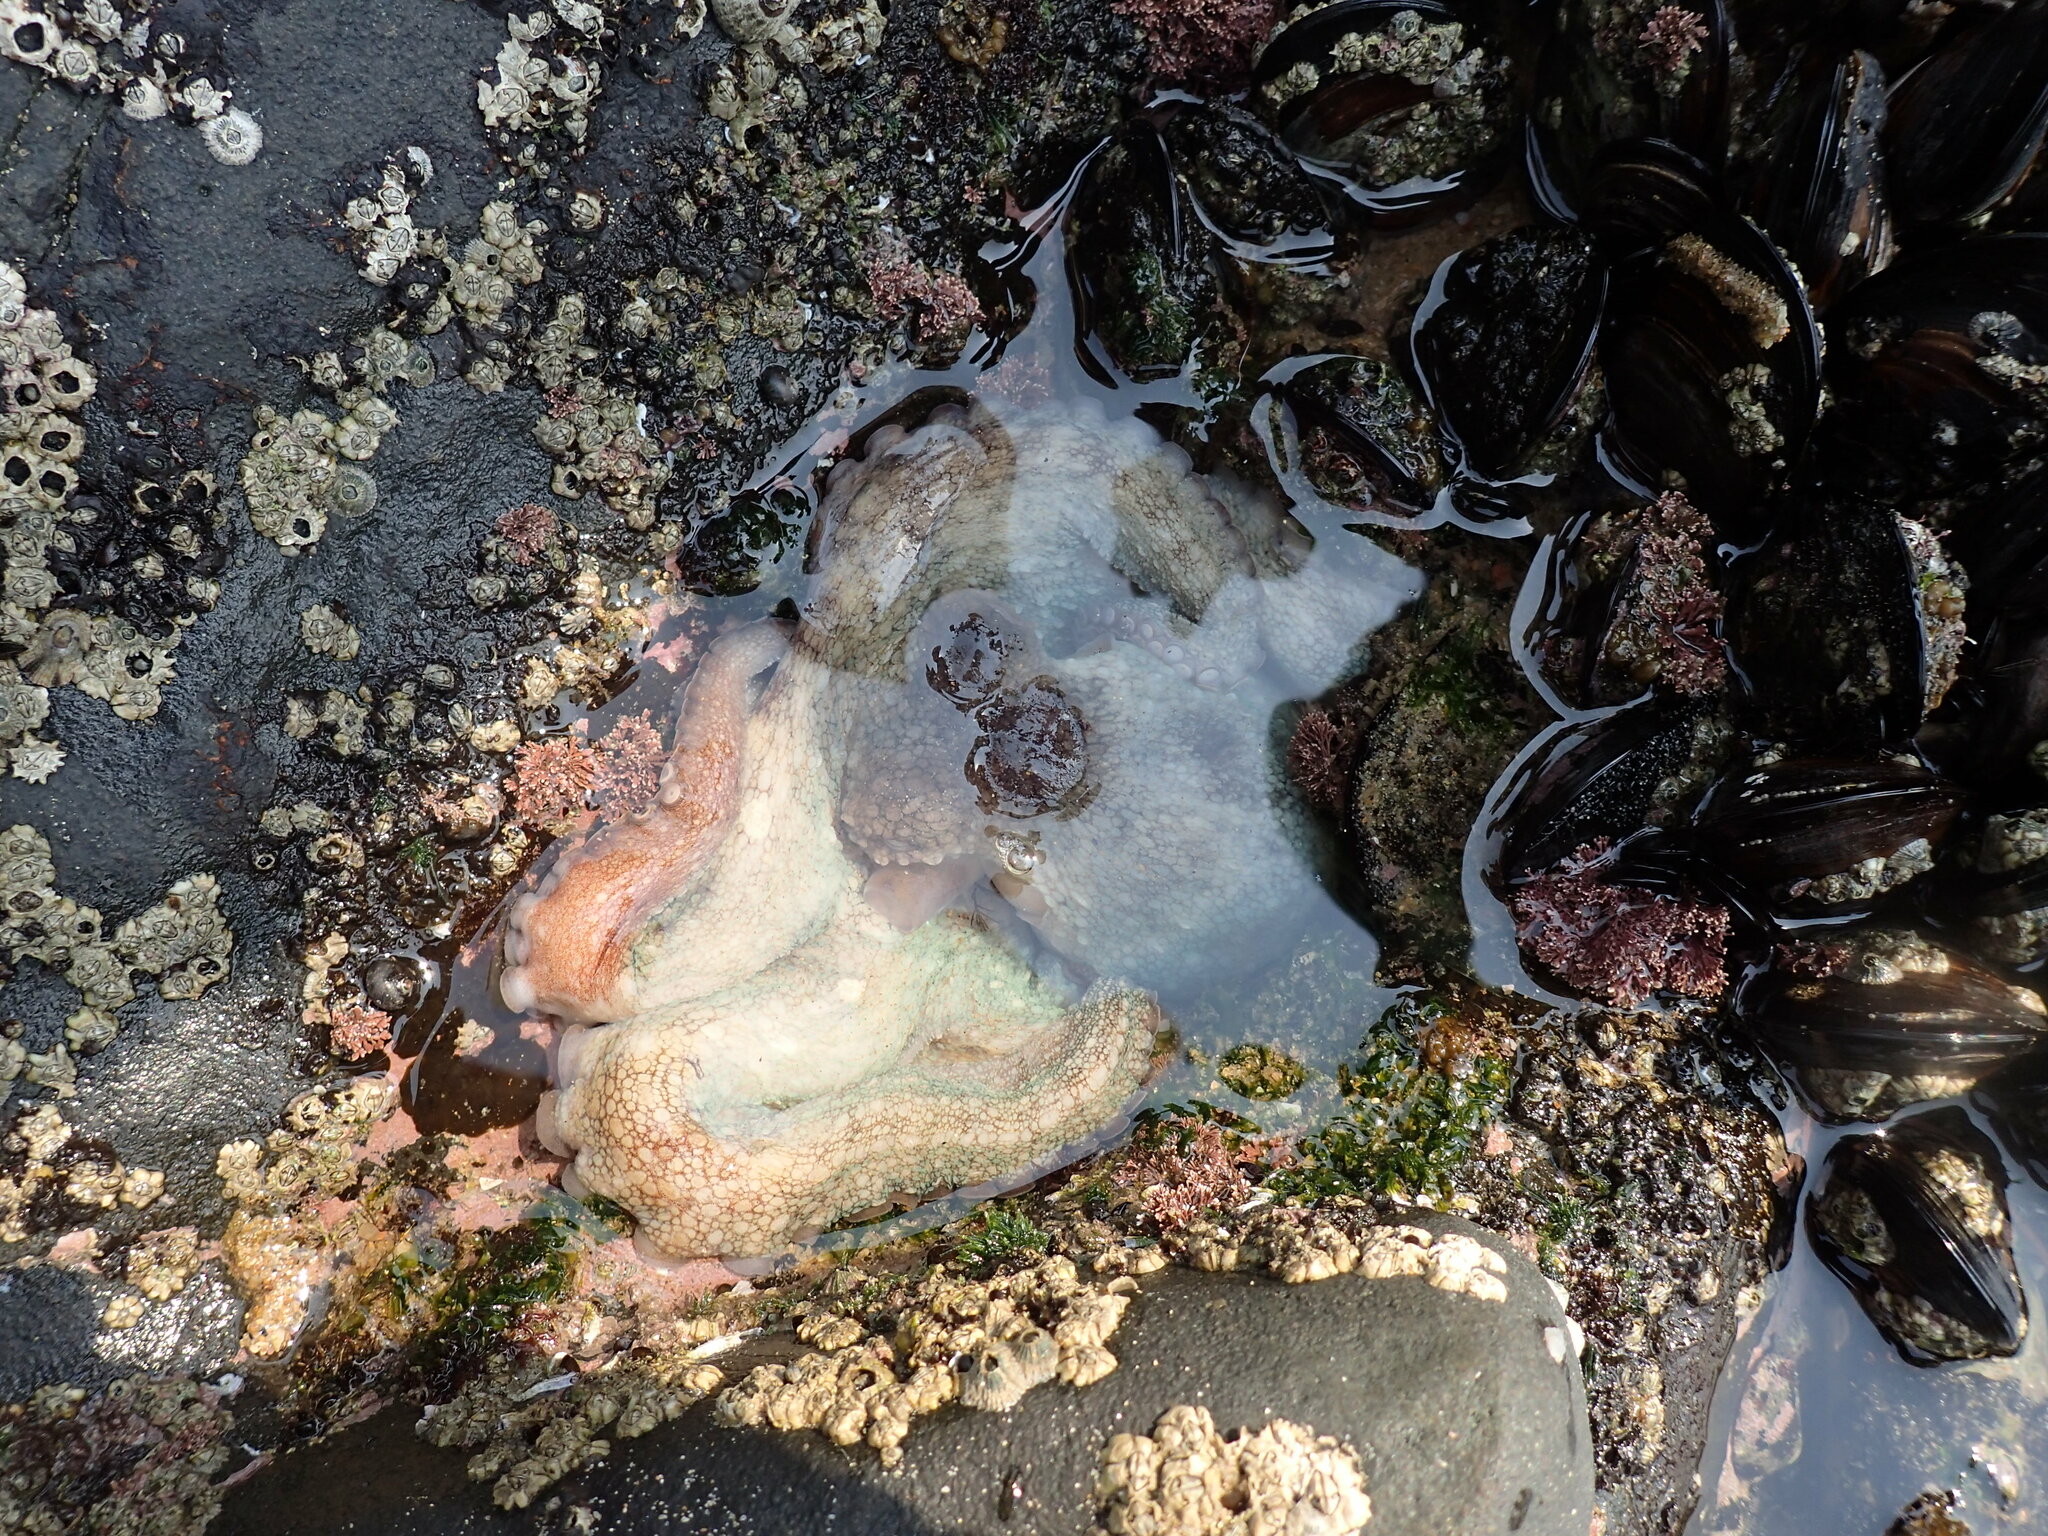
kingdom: Animalia
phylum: Mollusca
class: Cephalopoda
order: Octopoda
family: Octopodidae
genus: Octopus
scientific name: Octopus vulgaris
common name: Common octopus
